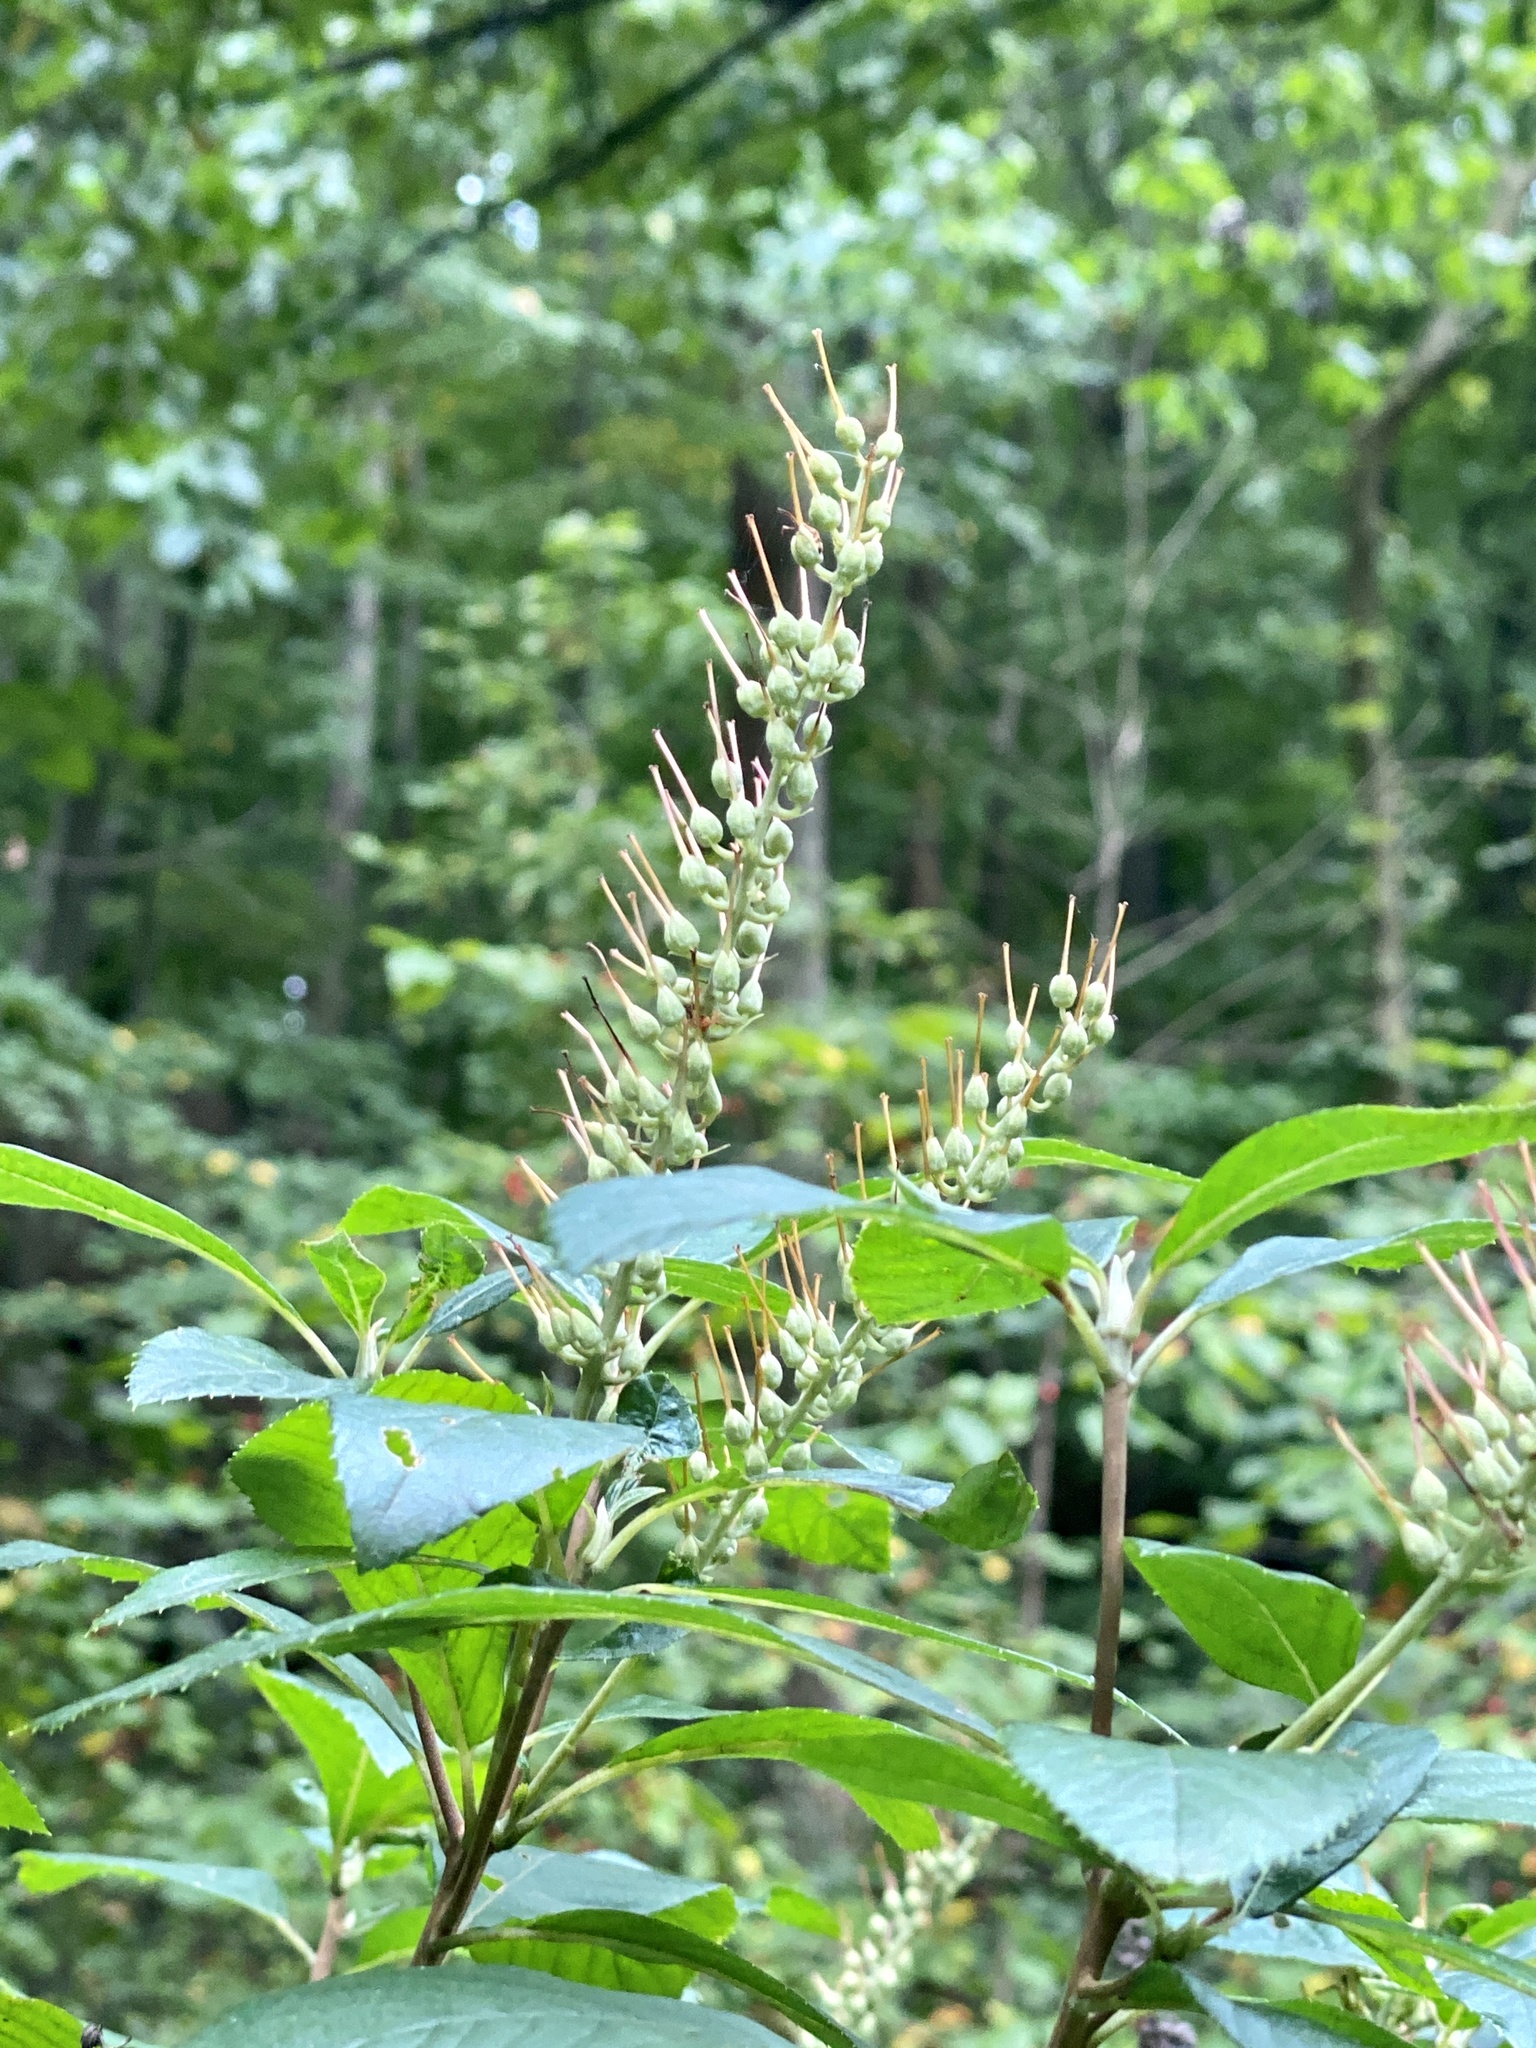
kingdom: Plantae
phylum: Tracheophyta
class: Magnoliopsida
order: Ericales
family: Clethraceae
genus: Clethra
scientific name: Clethra alnifolia
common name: Sweet pepperbush
